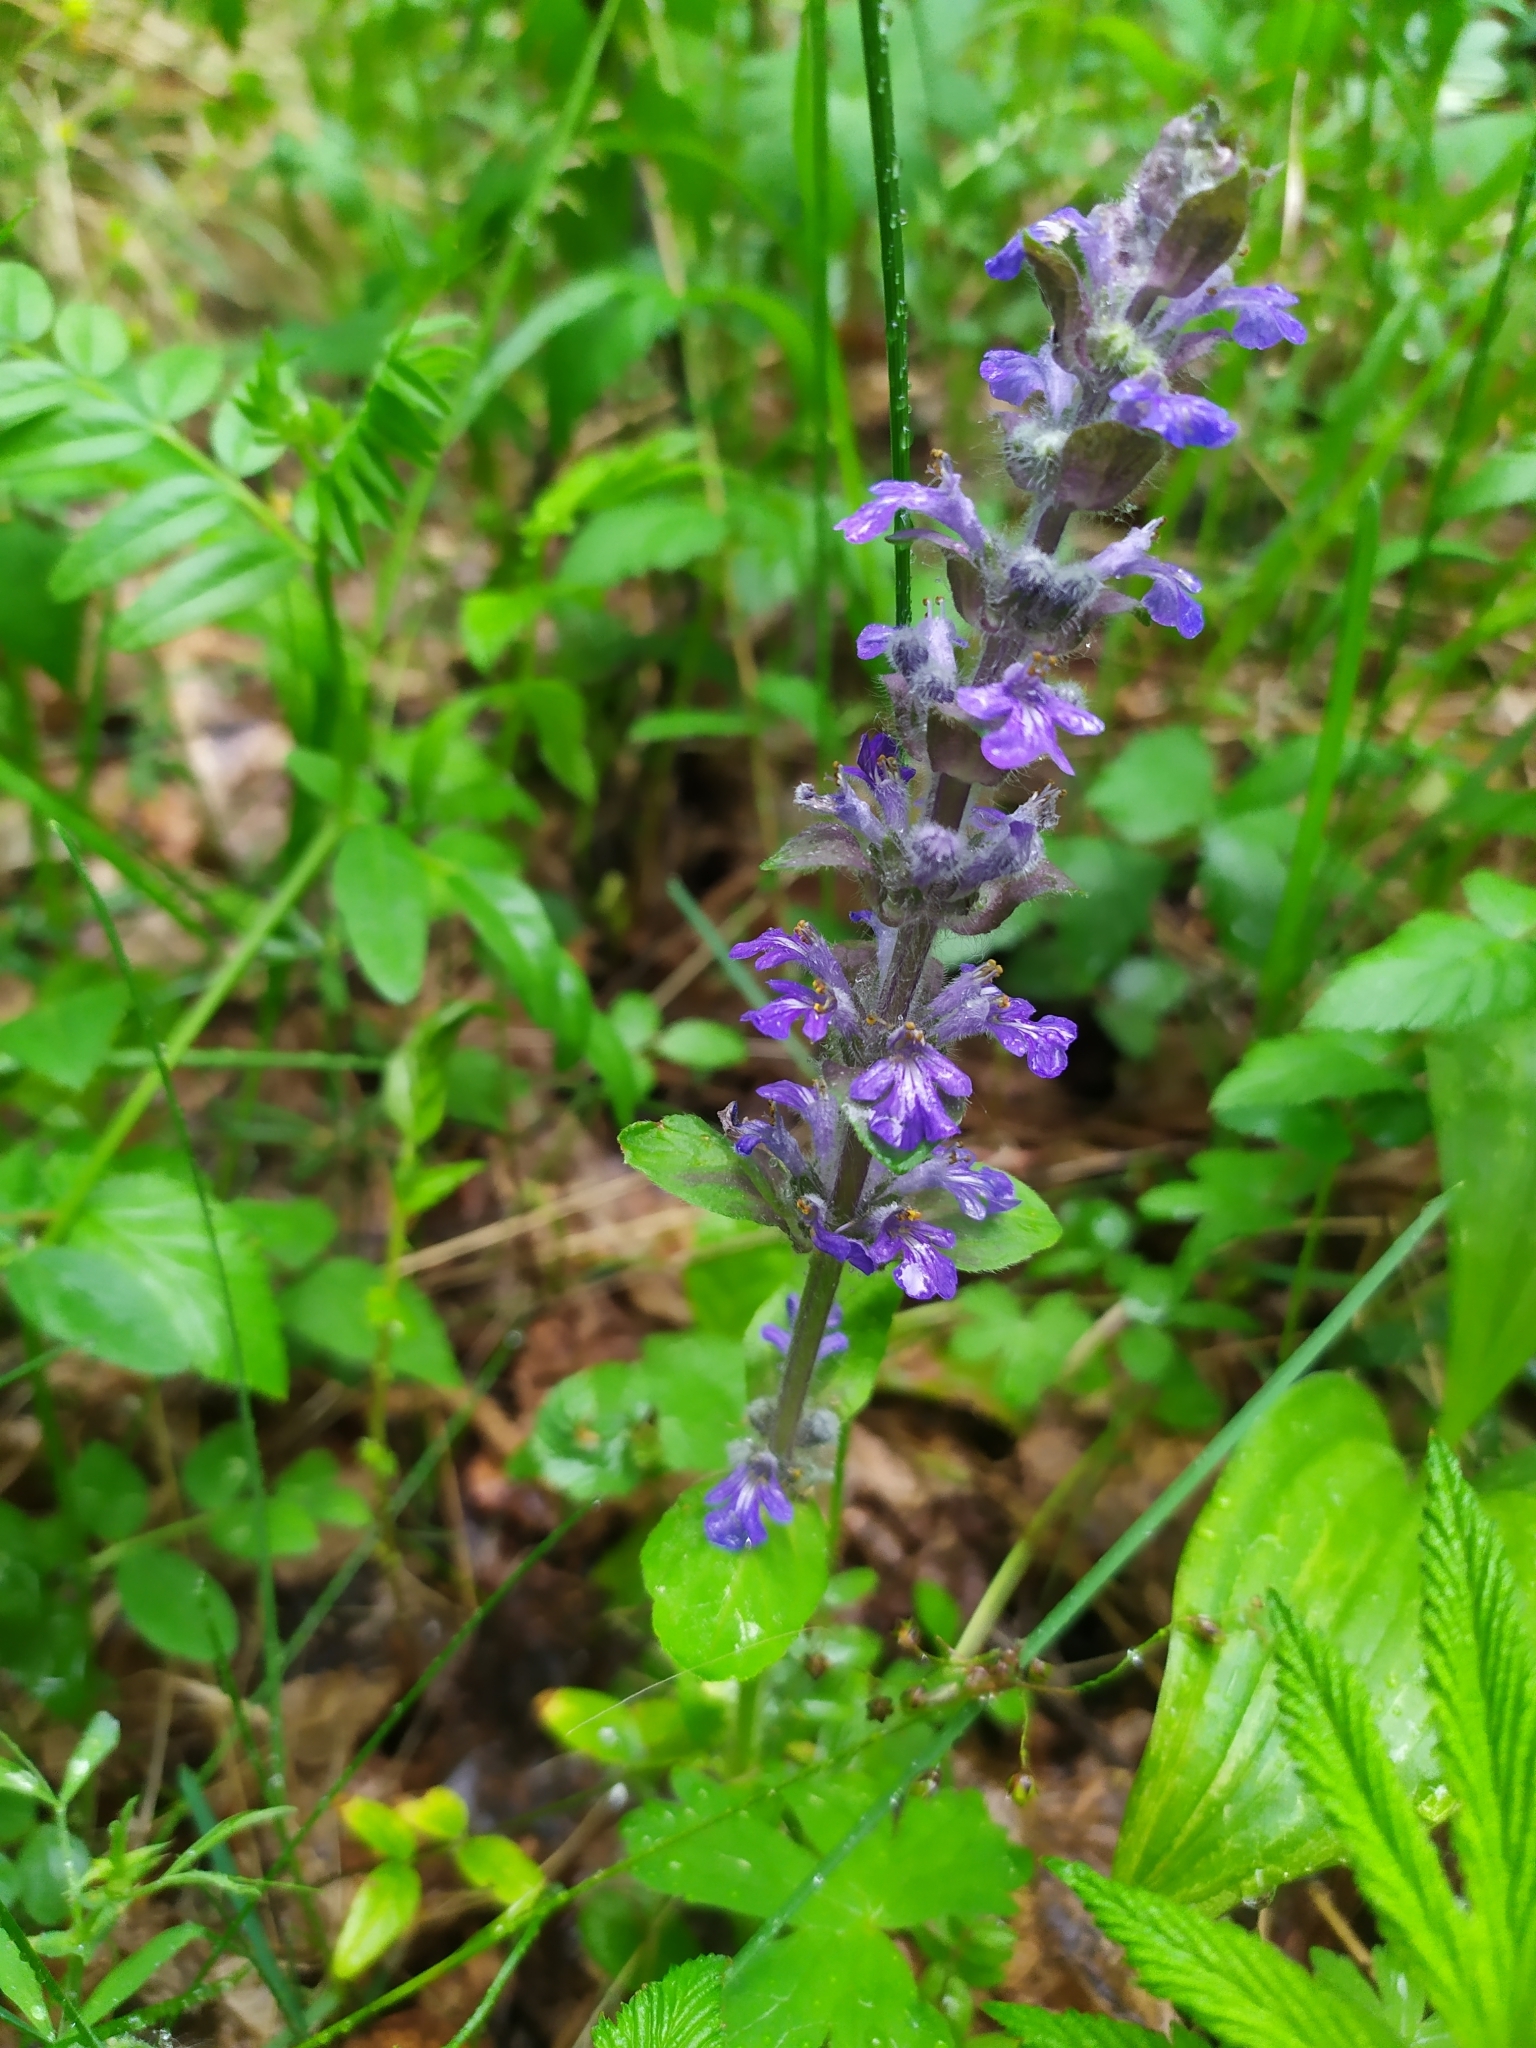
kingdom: Plantae
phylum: Tracheophyta
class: Magnoliopsida
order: Lamiales
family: Lamiaceae
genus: Ajuga
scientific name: Ajuga reptans
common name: Bugle
